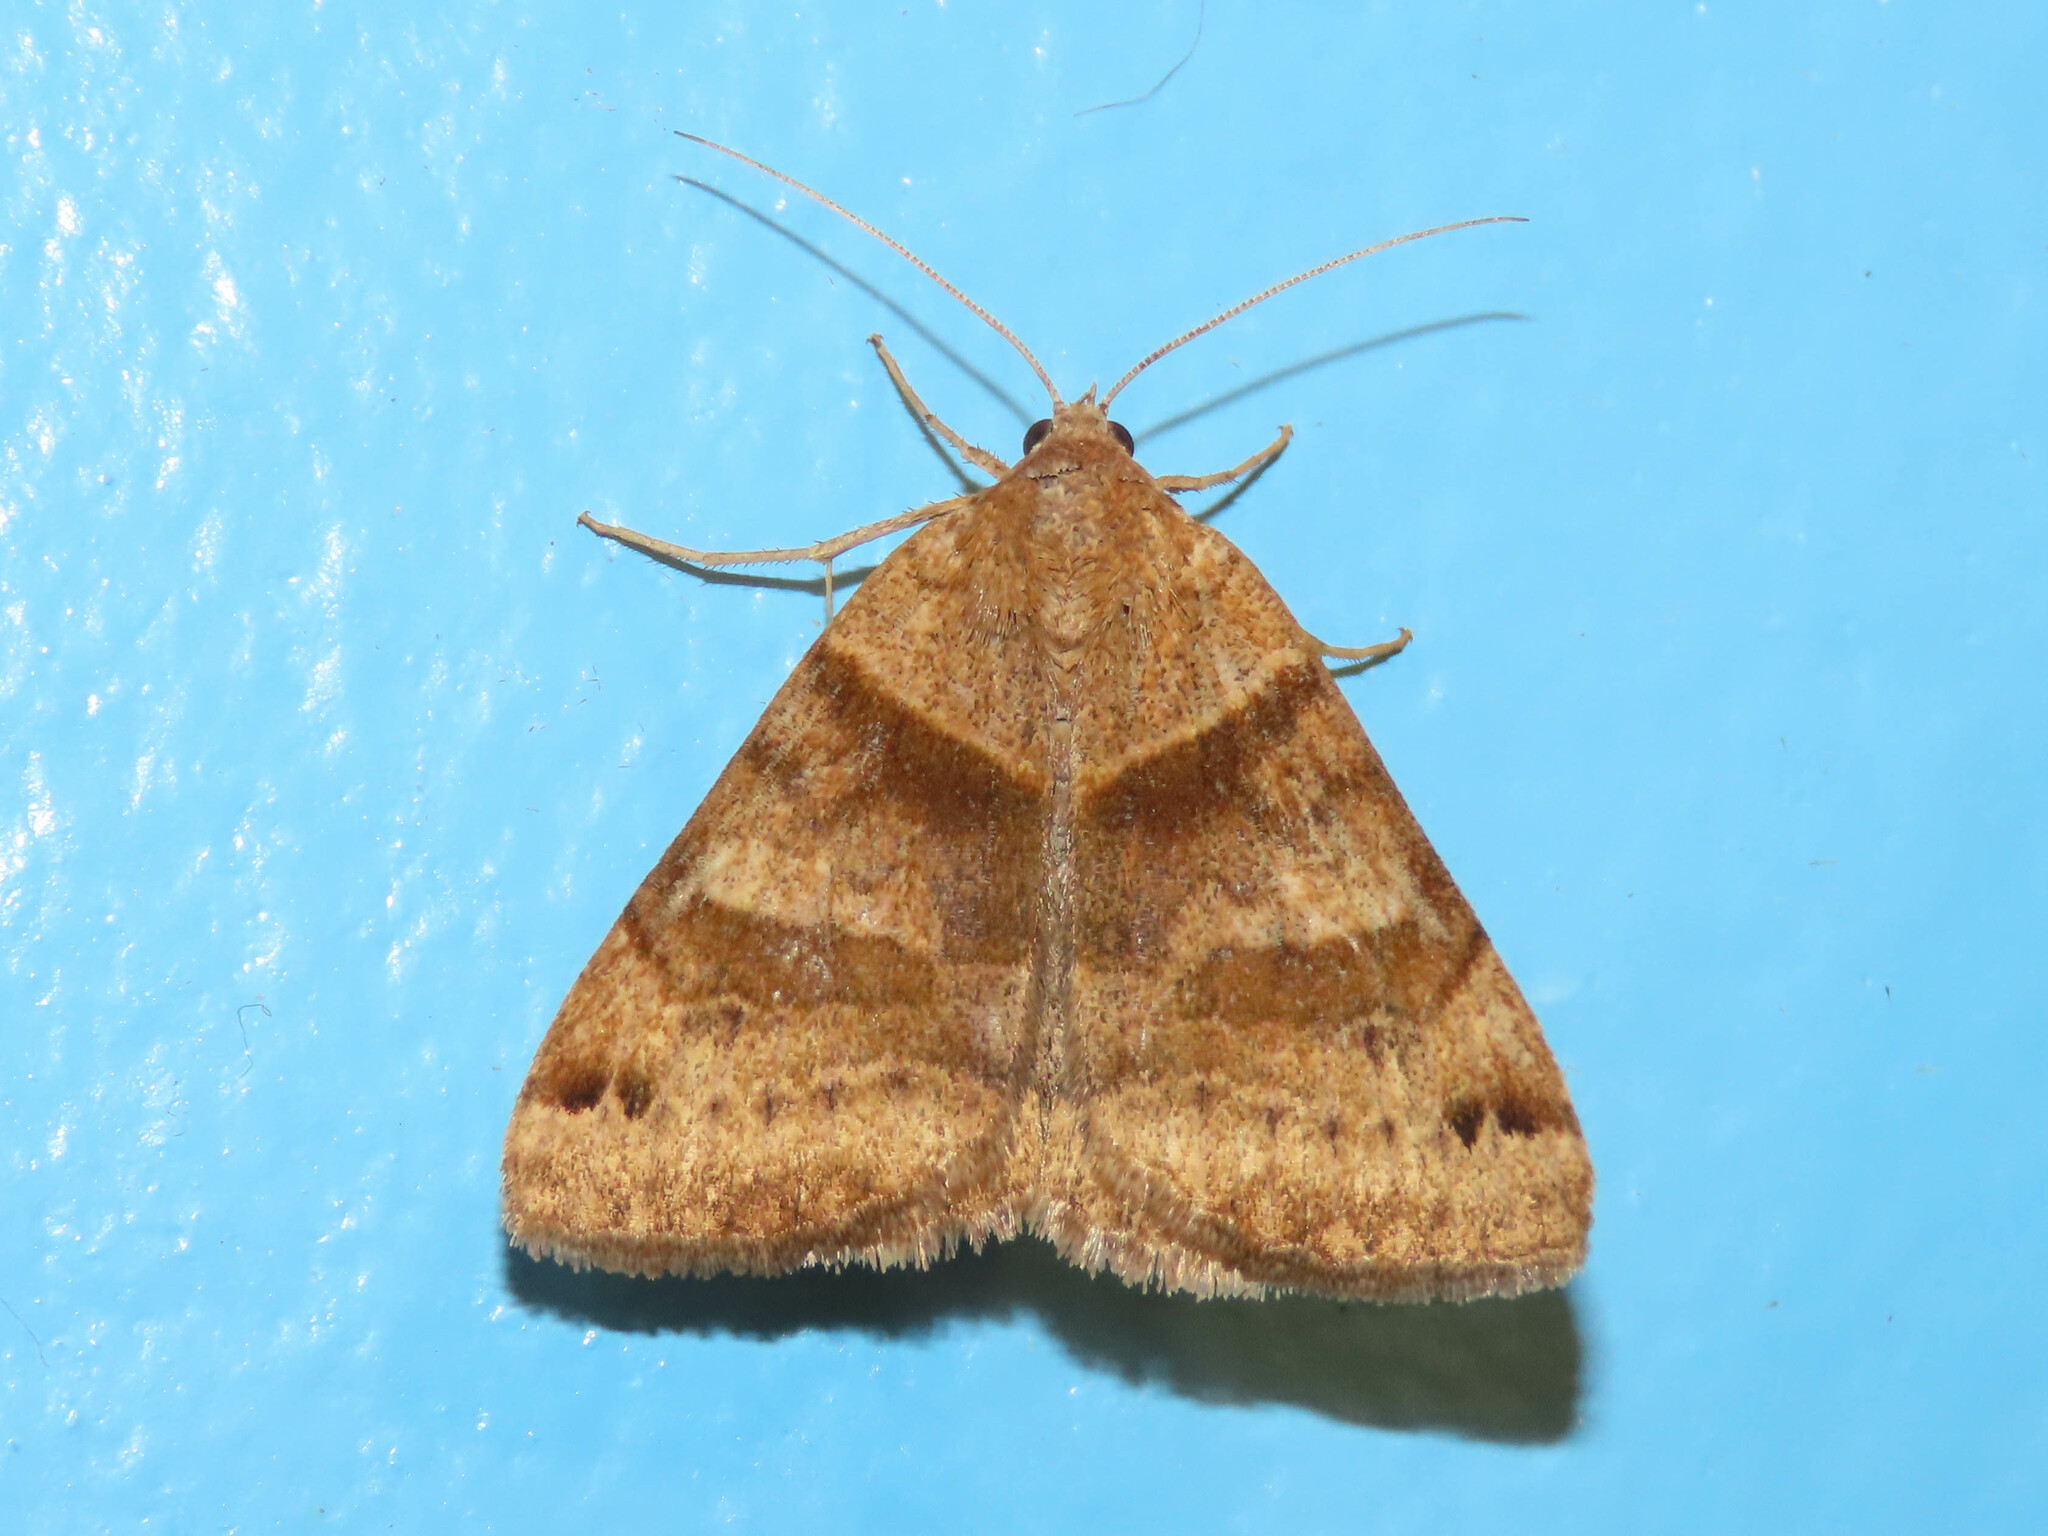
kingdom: Animalia
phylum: Arthropoda
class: Insecta
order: Lepidoptera
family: Erebidae
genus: Caenurgina
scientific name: Caenurgina crassiuscula
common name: Double-barred
